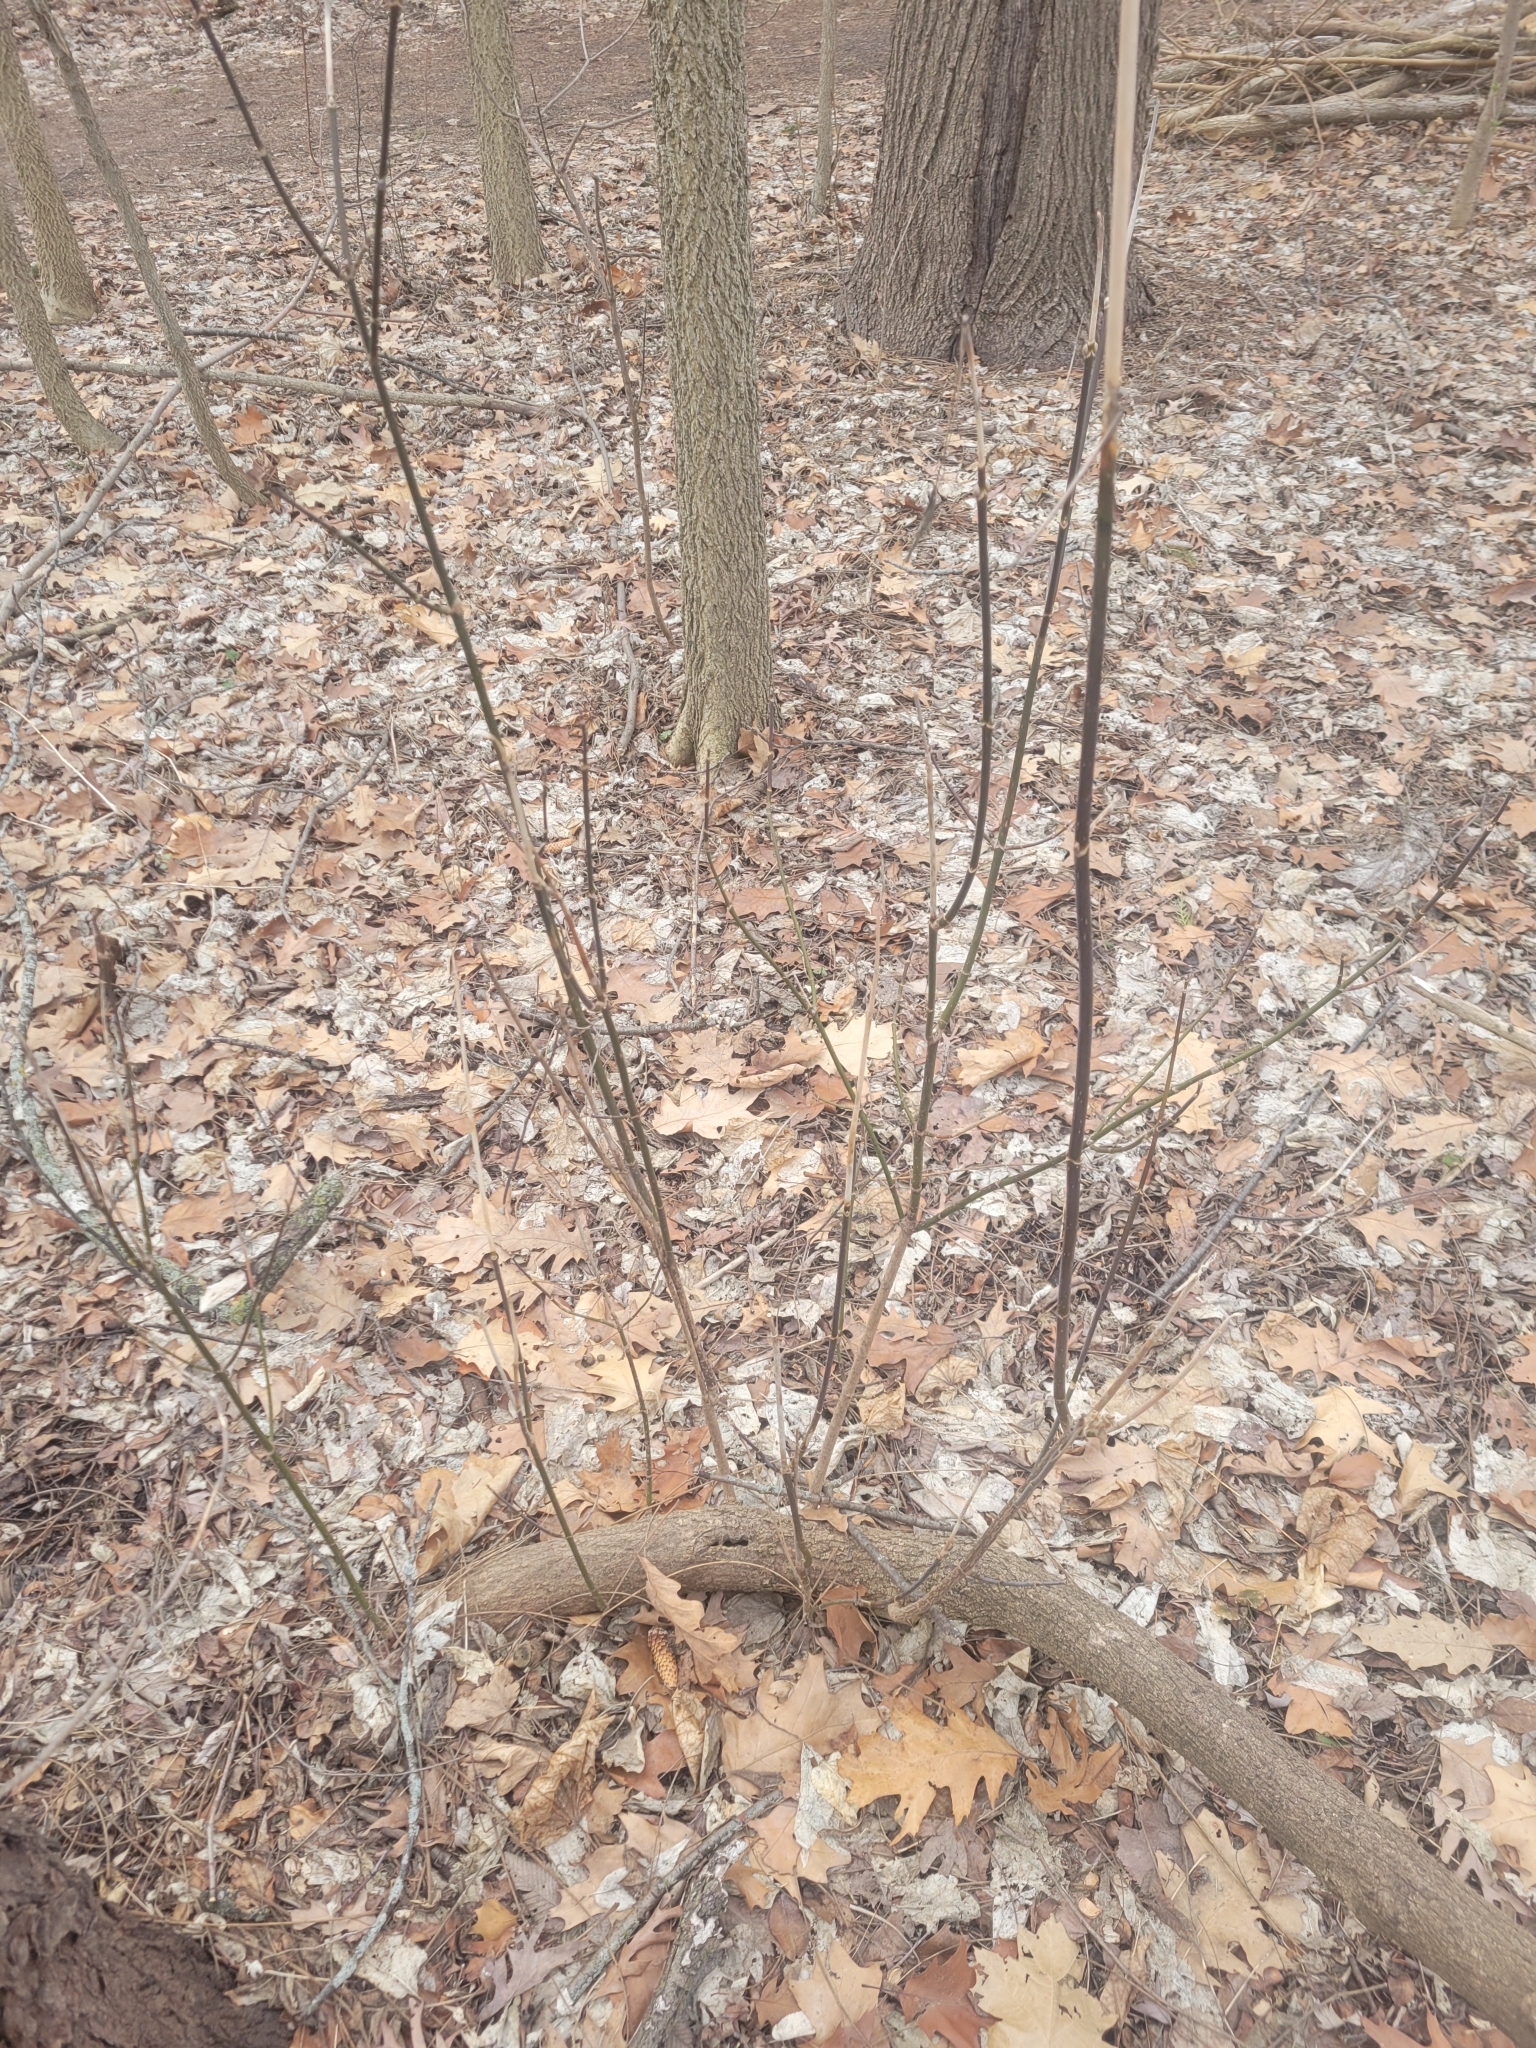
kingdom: Plantae
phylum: Tracheophyta
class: Magnoliopsida
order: Sapindales
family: Sapindaceae
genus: Acer
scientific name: Acer negundo
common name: Ashleaf maple
